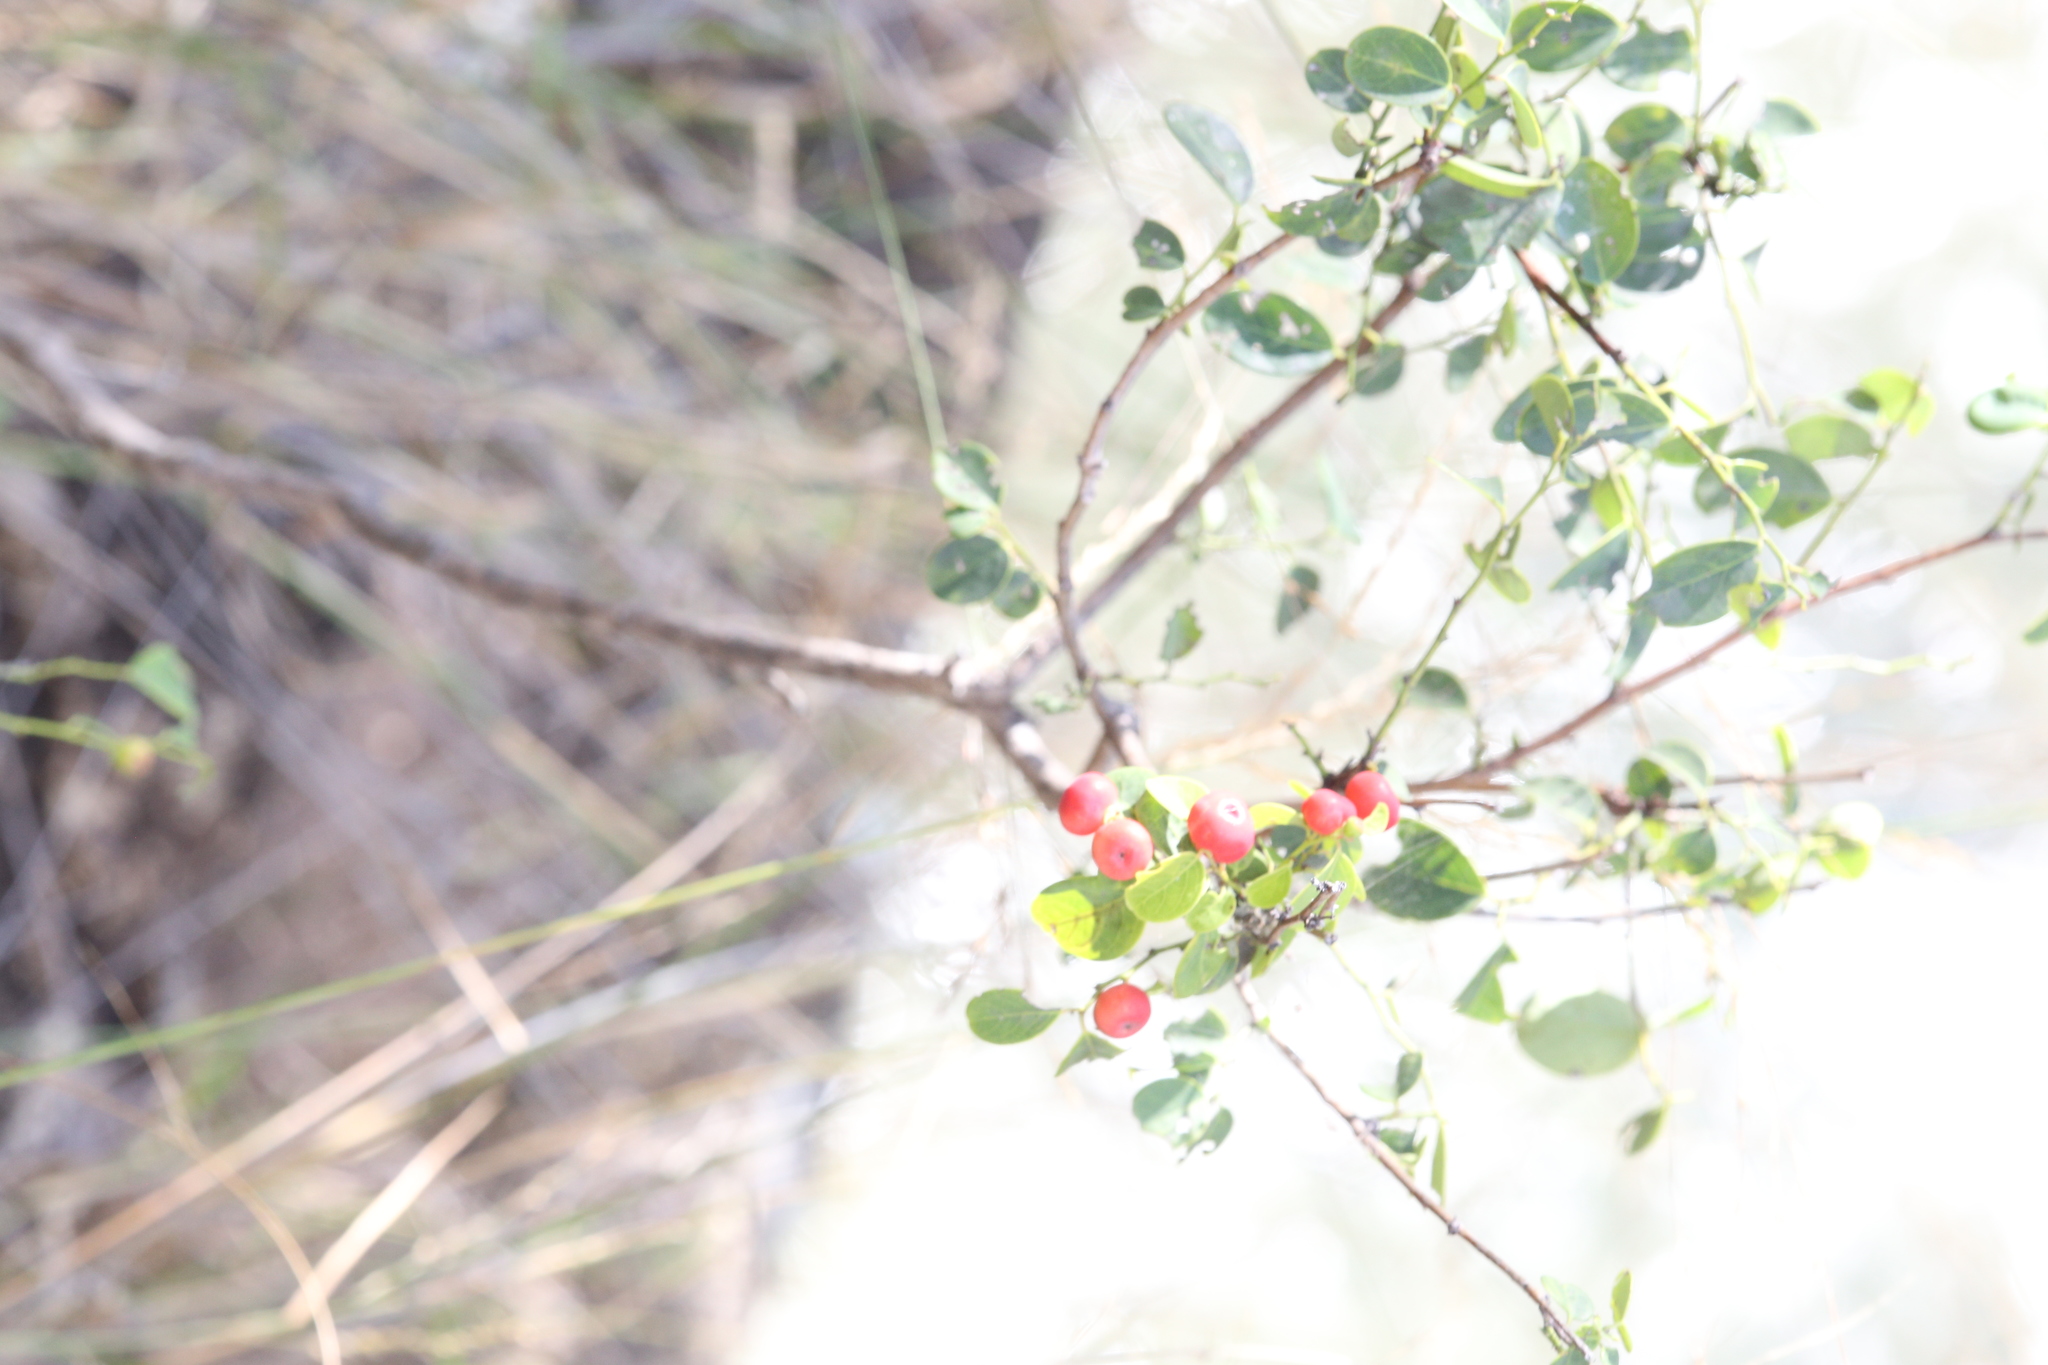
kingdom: Plantae
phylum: Tracheophyta
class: Magnoliopsida
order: Malpighiales
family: Phyllanthaceae
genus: Breynia
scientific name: Breynia oblongifolia
